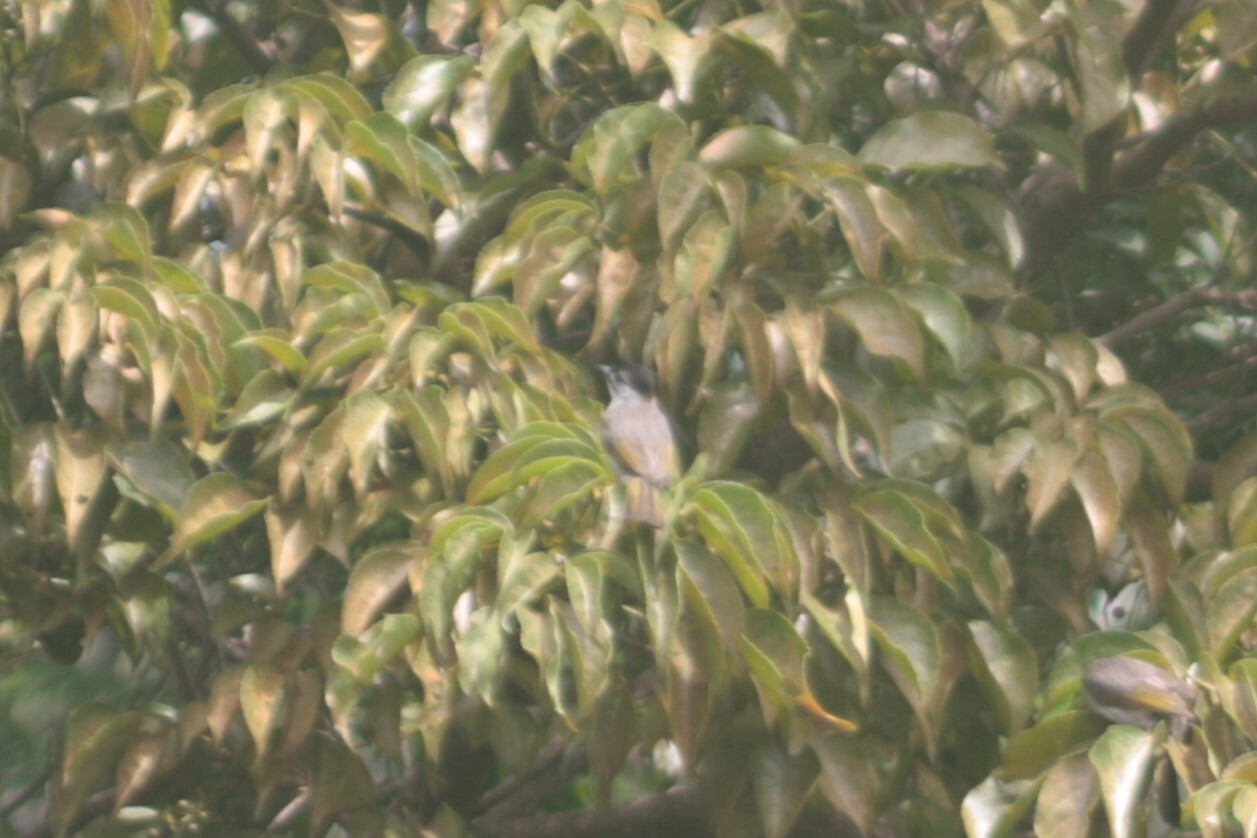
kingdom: Animalia
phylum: Chordata
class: Aves
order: Passeriformes
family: Pycnonotidae
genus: Pycnonotus
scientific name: Pycnonotus taivanus
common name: Styan's bulbul
